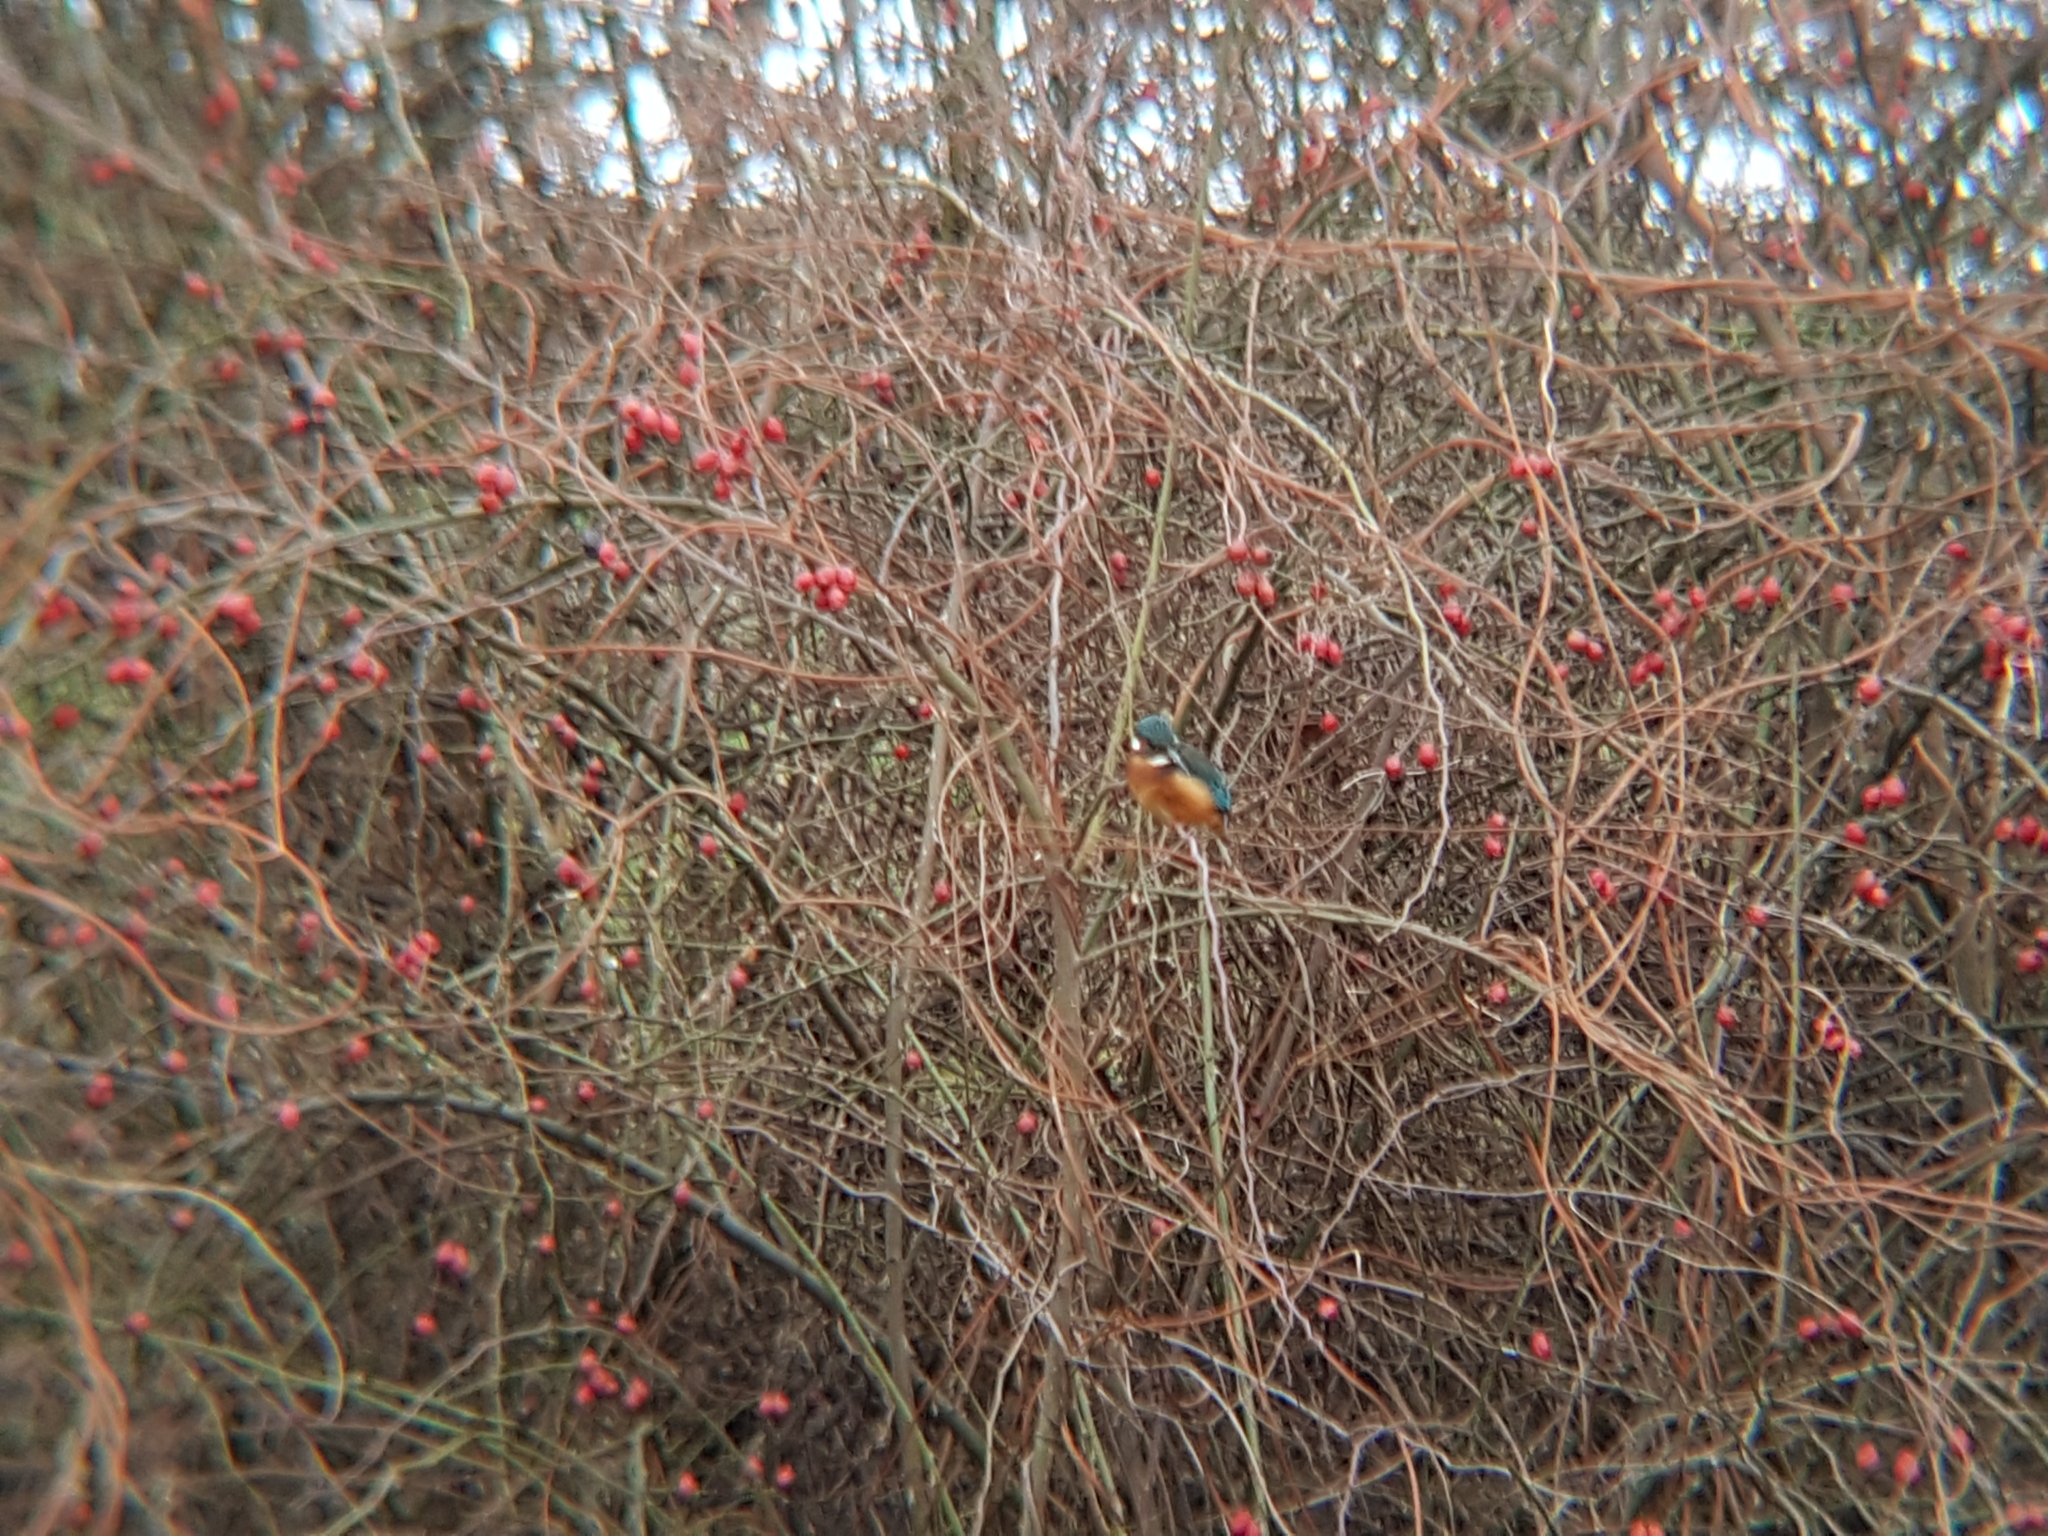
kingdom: Animalia
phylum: Chordata
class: Aves
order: Coraciiformes
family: Alcedinidae
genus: Alcedo
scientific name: Alcedo atthis
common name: Common kingfisher
